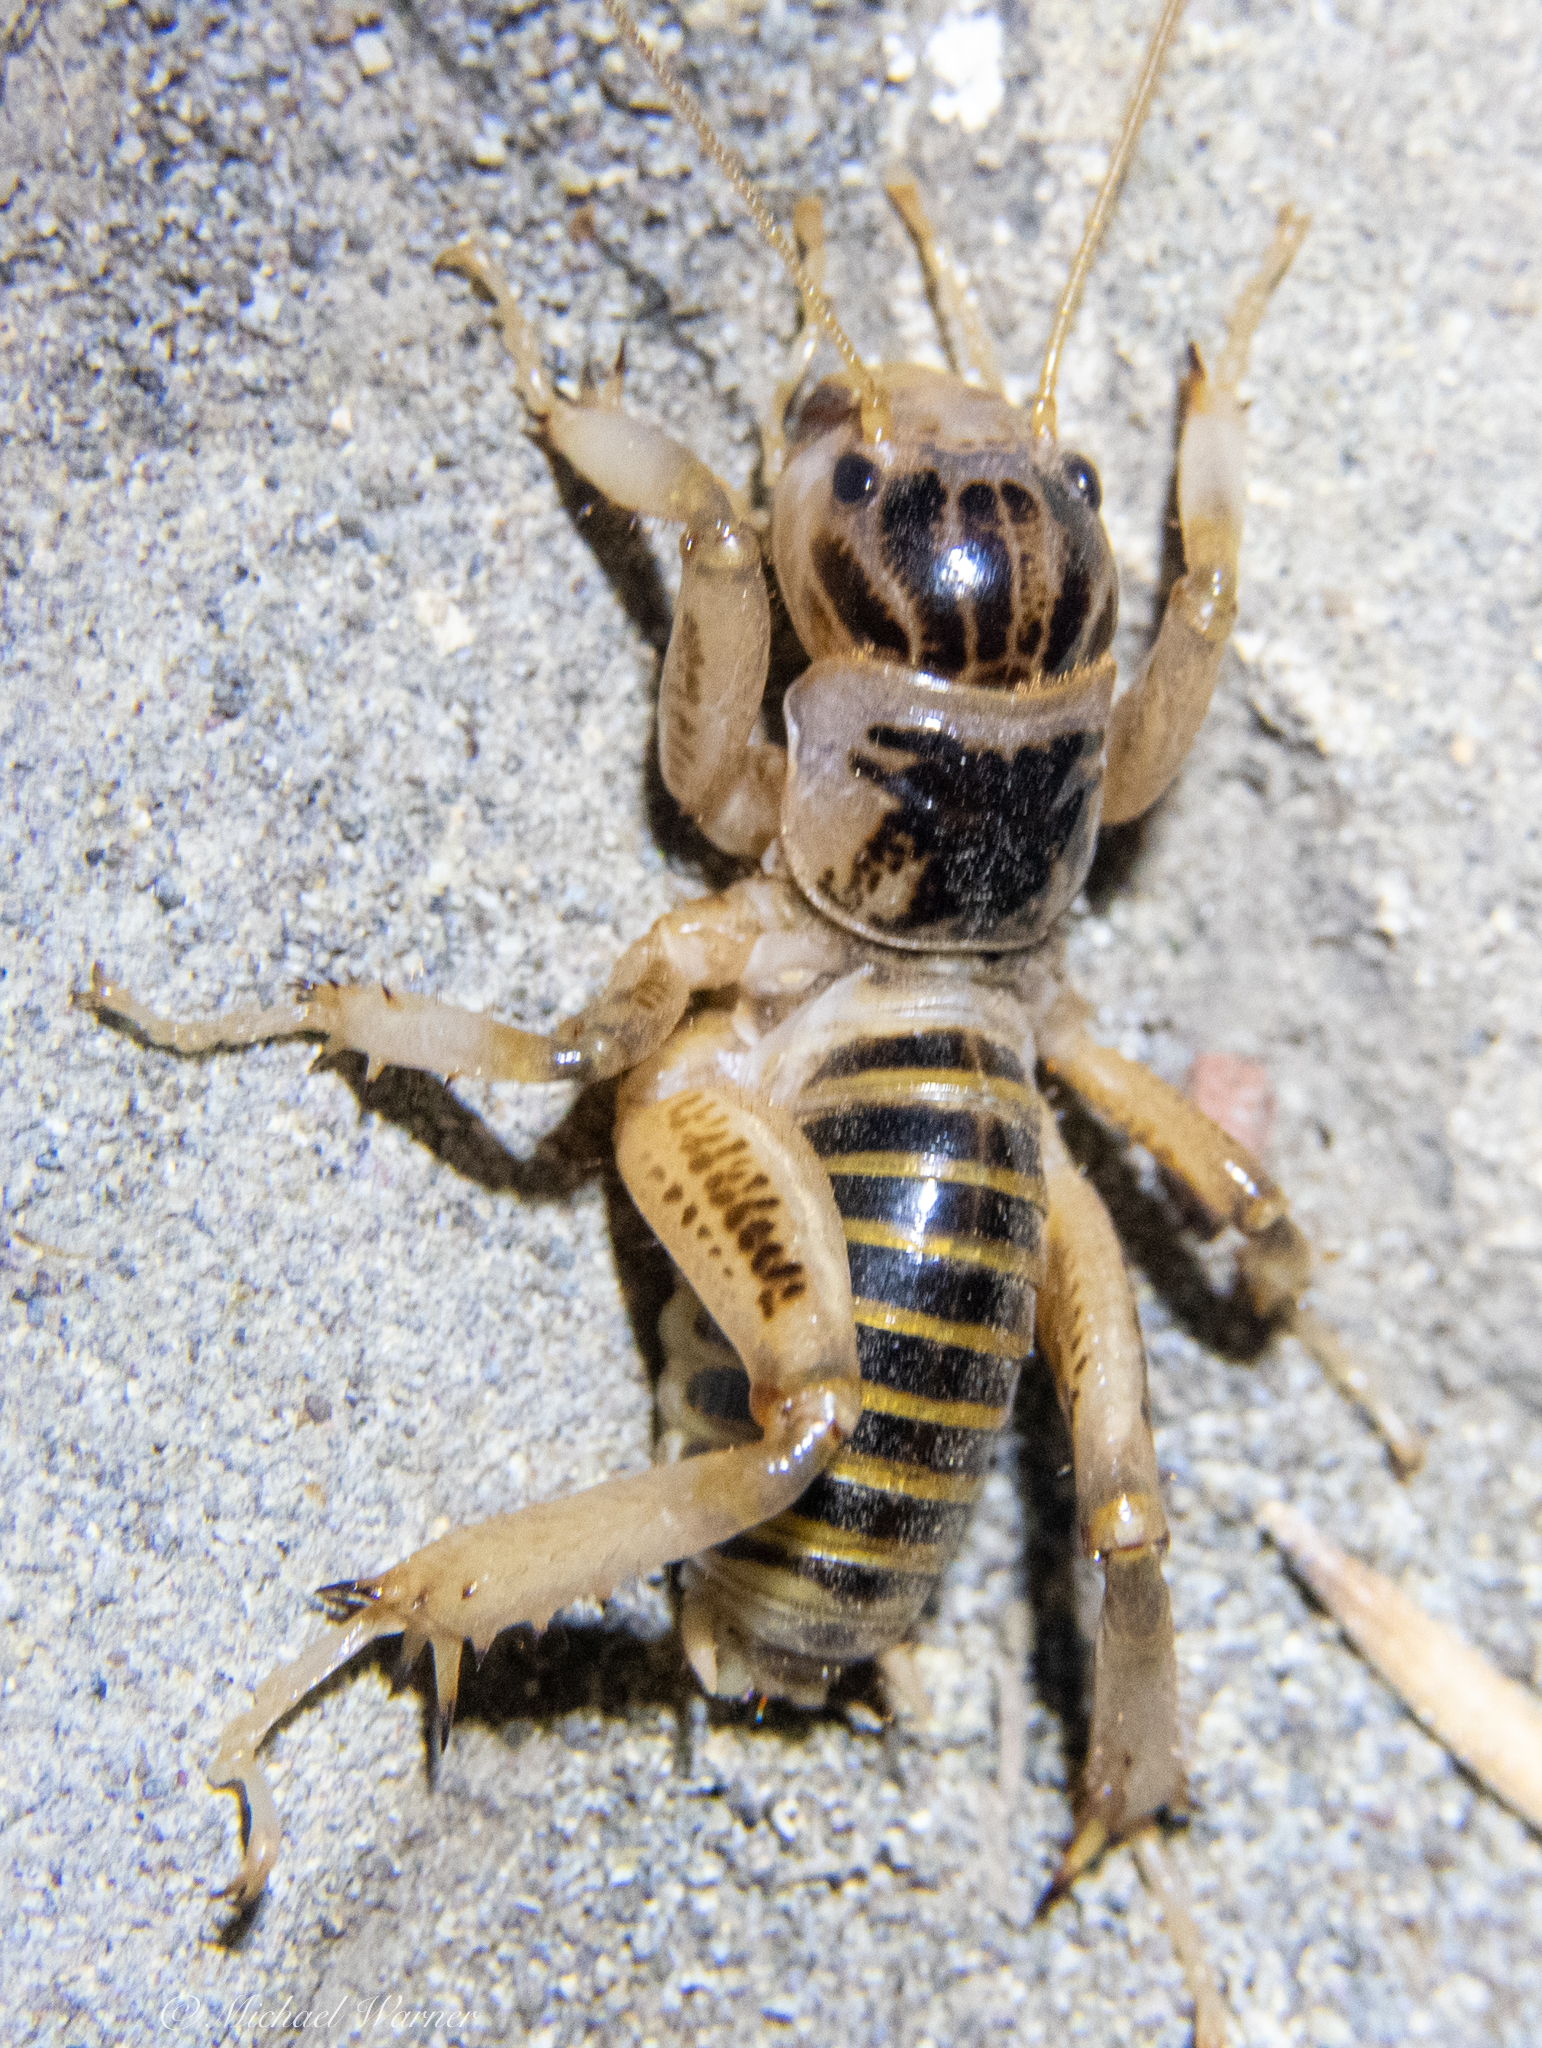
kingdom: Animalia
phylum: Arthropoda
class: Insecta
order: Orthoptera
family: Stenopelmatidae
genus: Ammopelmatus
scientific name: Ammopelmatus pictus
